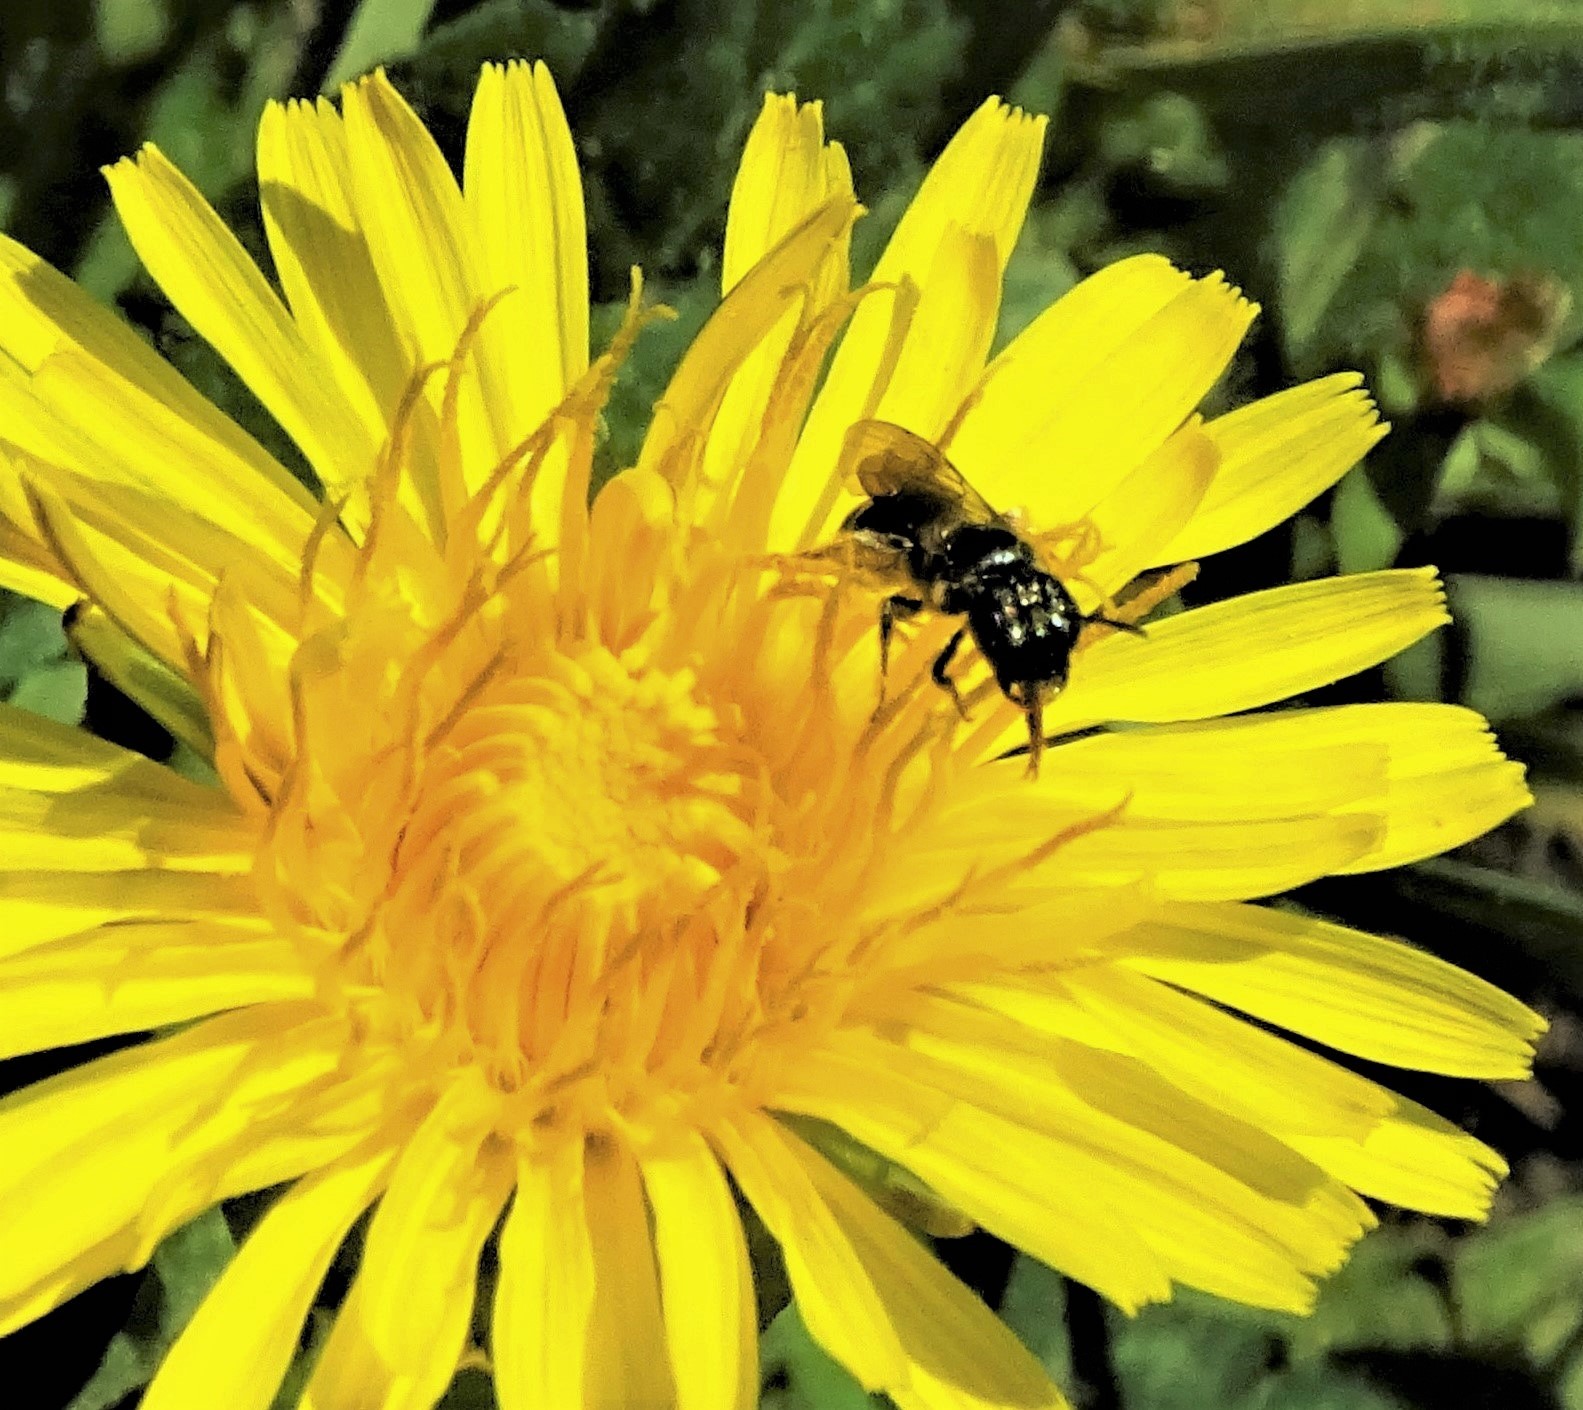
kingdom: Animalia
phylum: Arthropoda
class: Insecta
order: Hymenoptera
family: Apidae
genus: Ceratina
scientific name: Ceratina calcarata
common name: Spurred carpenter bee
